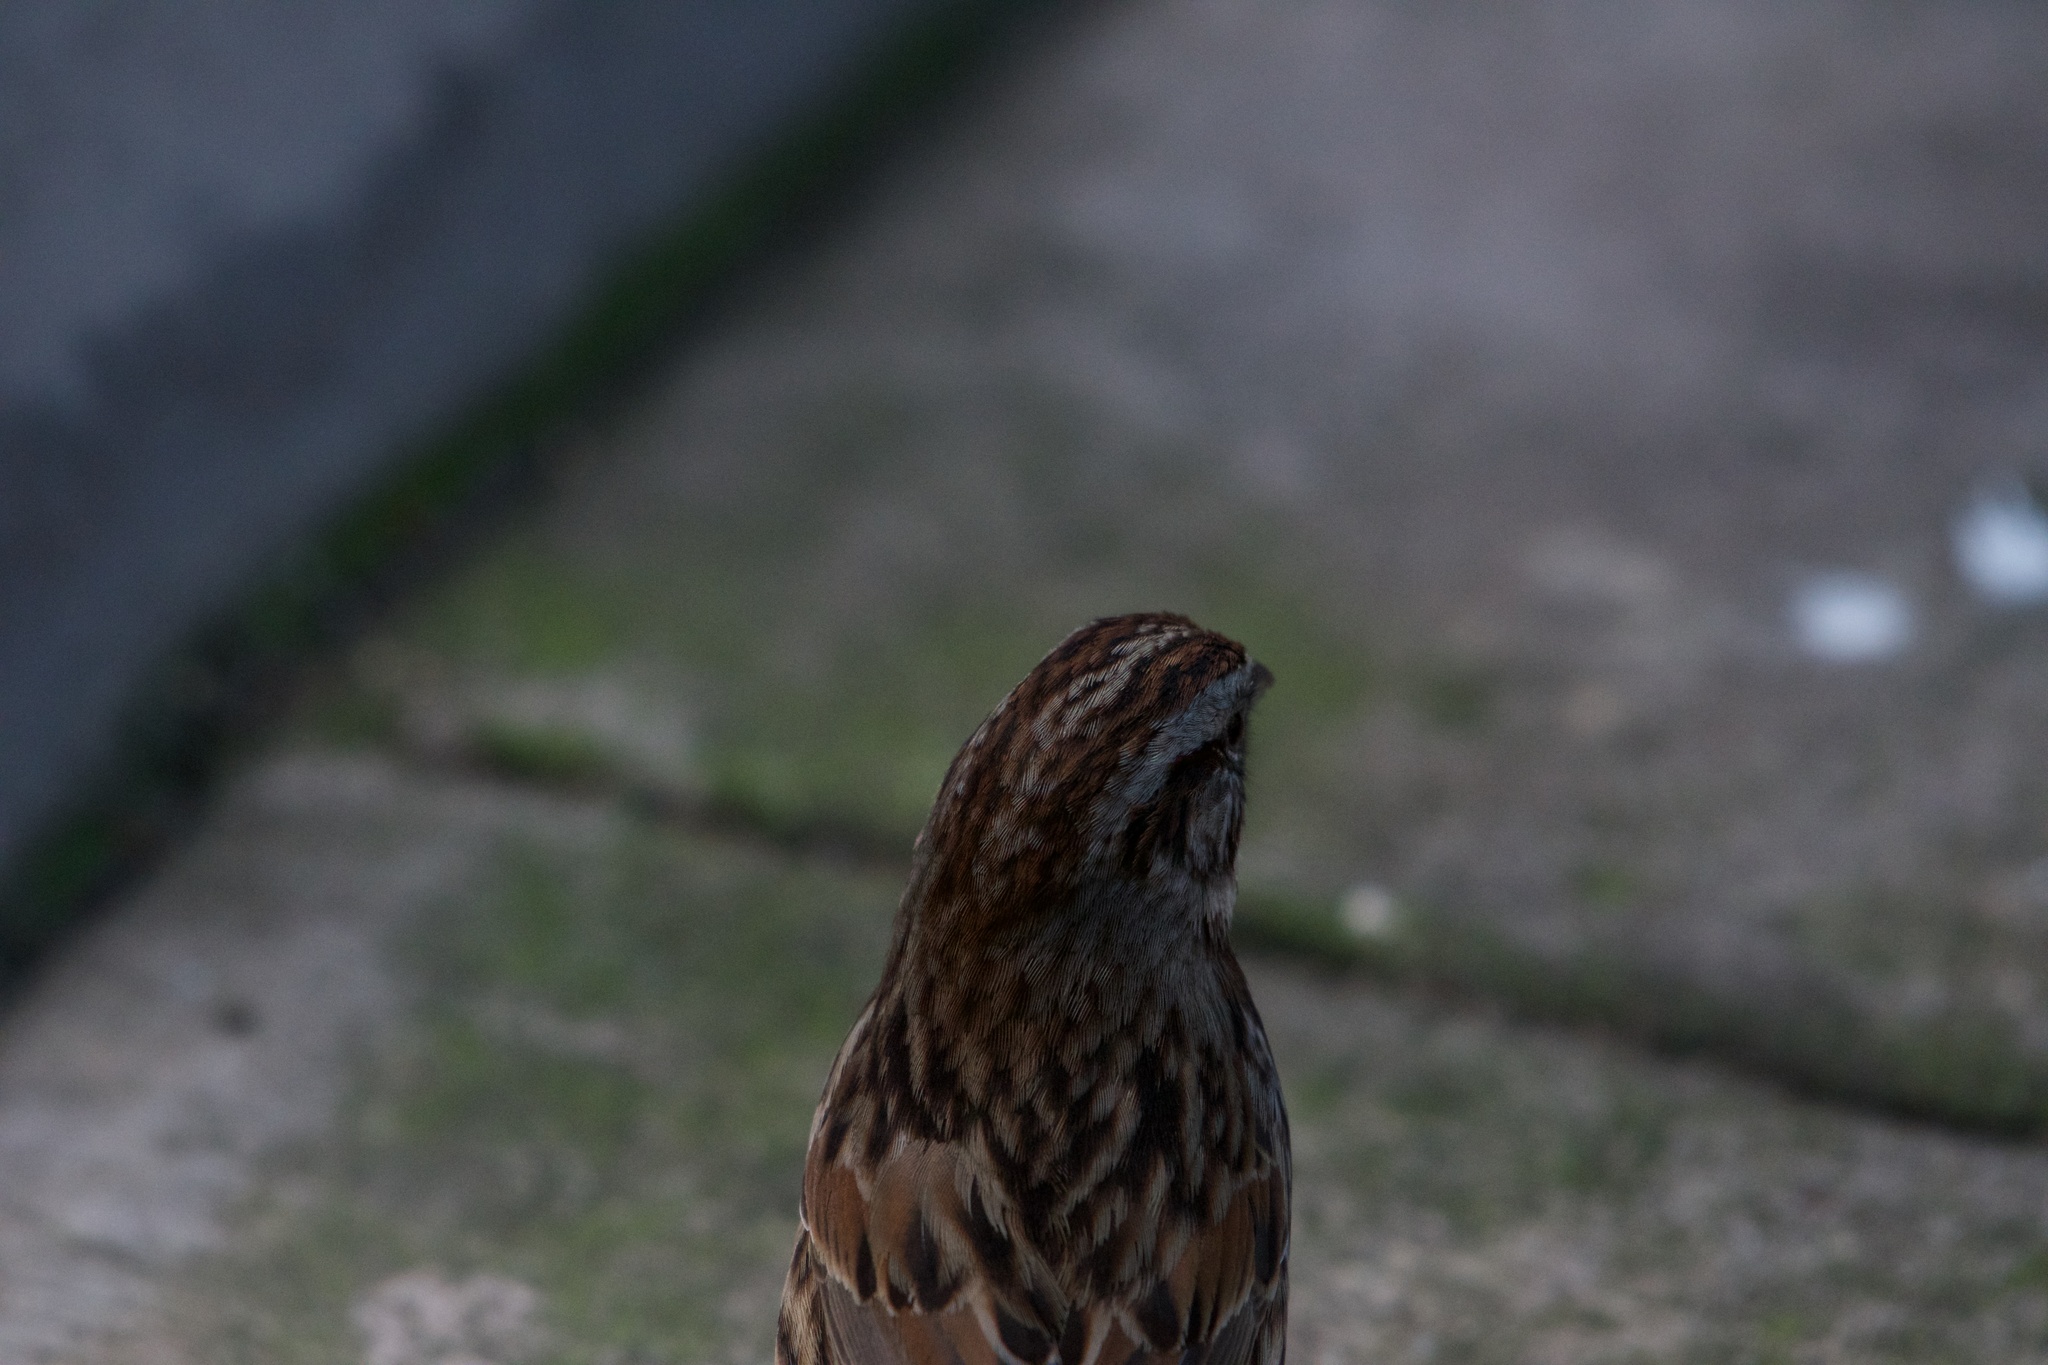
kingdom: Animalia
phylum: Chordata
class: Aves
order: Passeriformes
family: Passerellidae
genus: Melospiza
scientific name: Melospiza melodia
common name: Song sparrow
